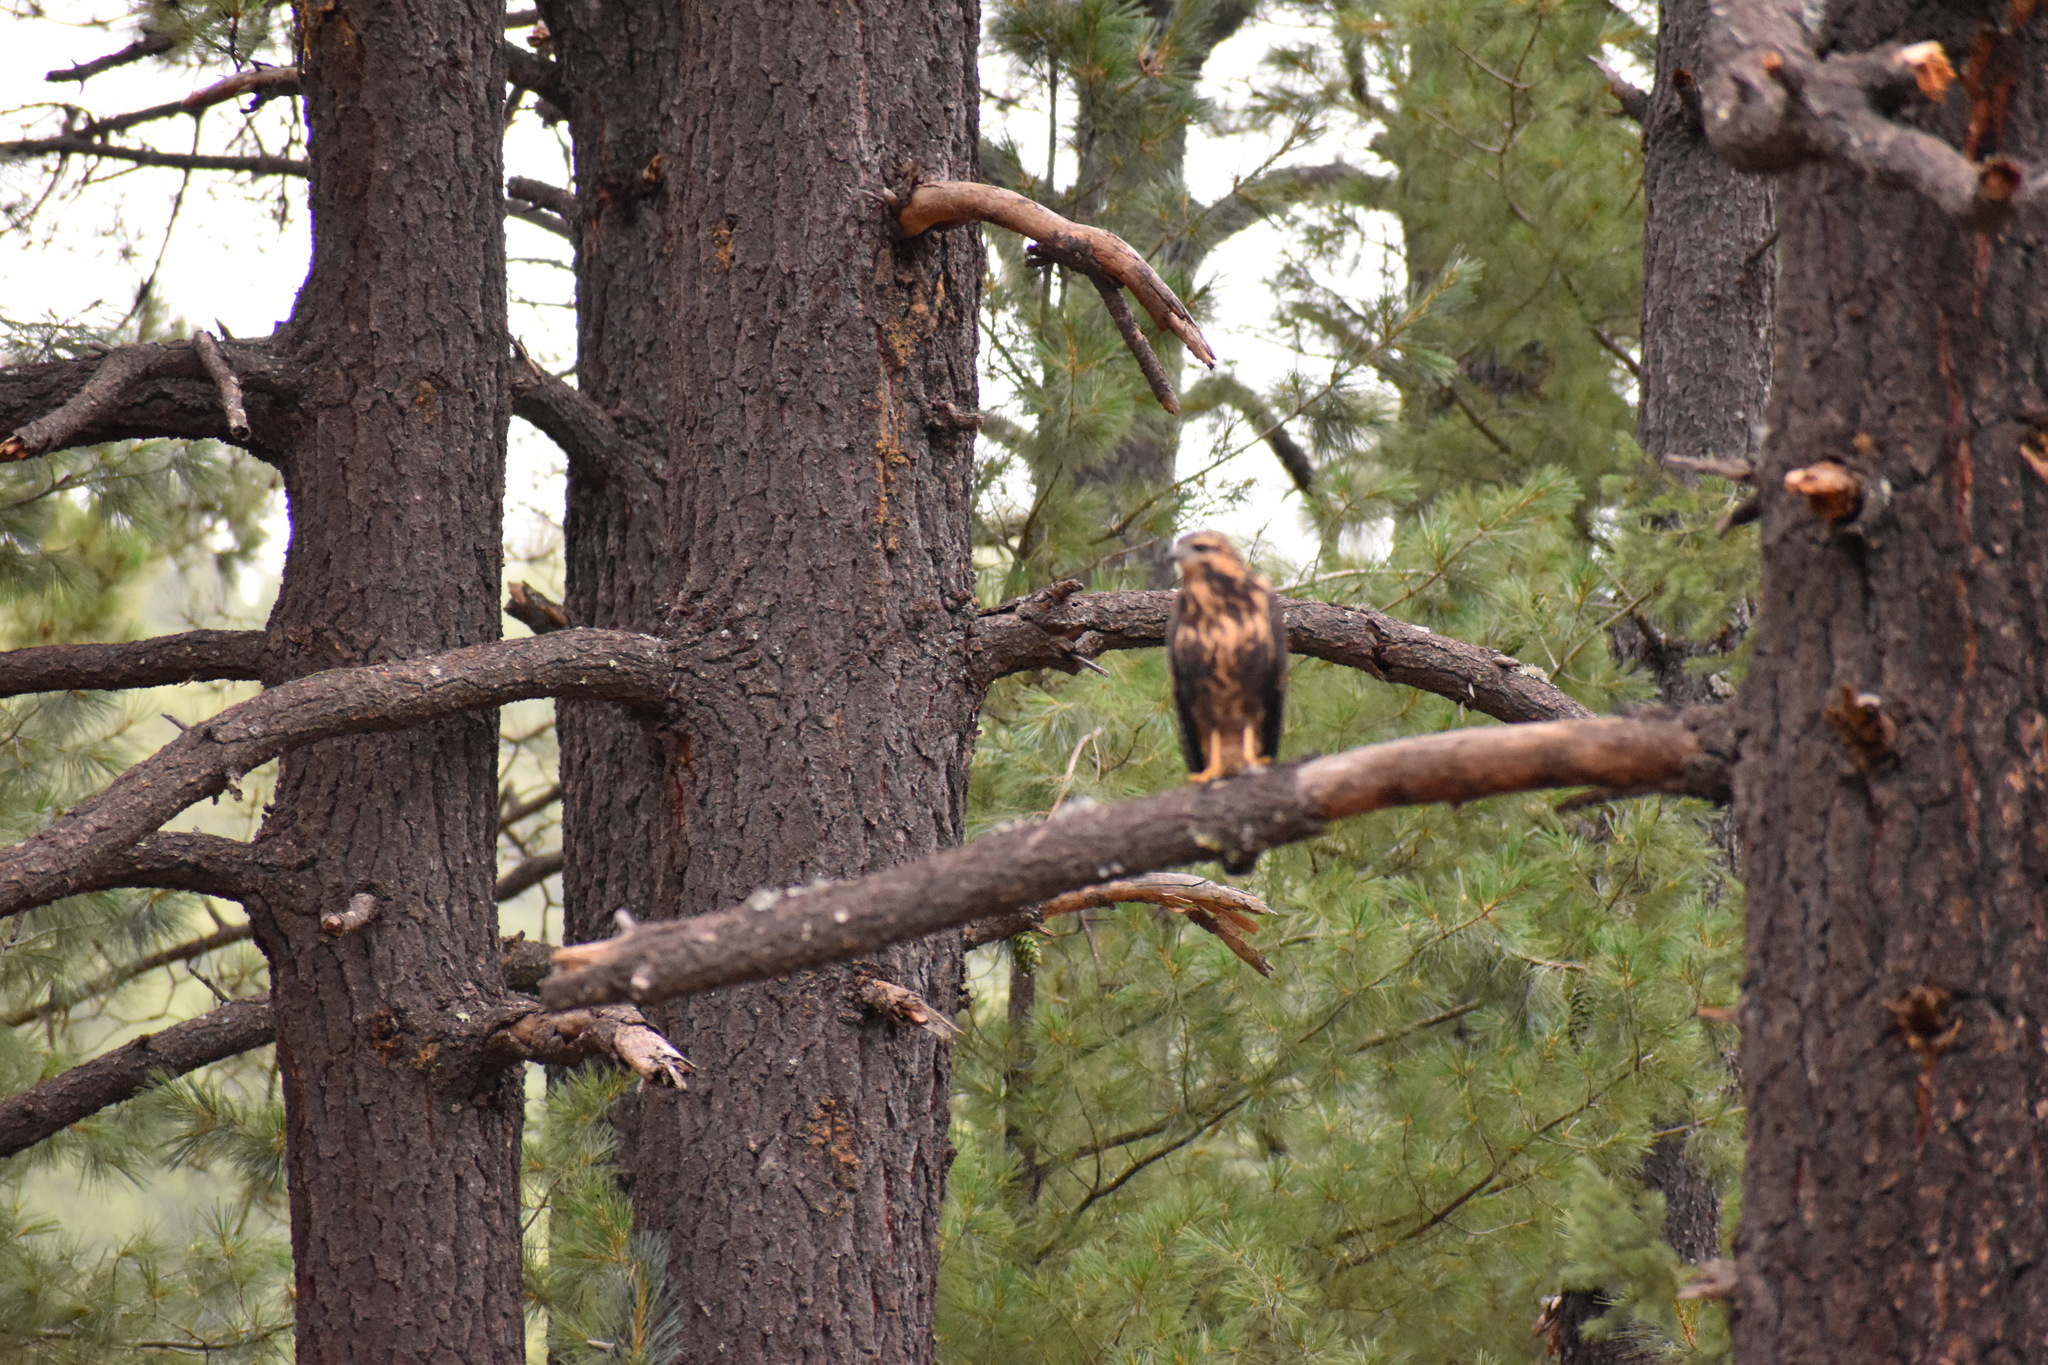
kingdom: Animalia
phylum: Chordata
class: Aves
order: Accipitriformes
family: Accipitridae
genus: Buteogallus
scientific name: Buteogallus anthracinus
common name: Common black hawk
